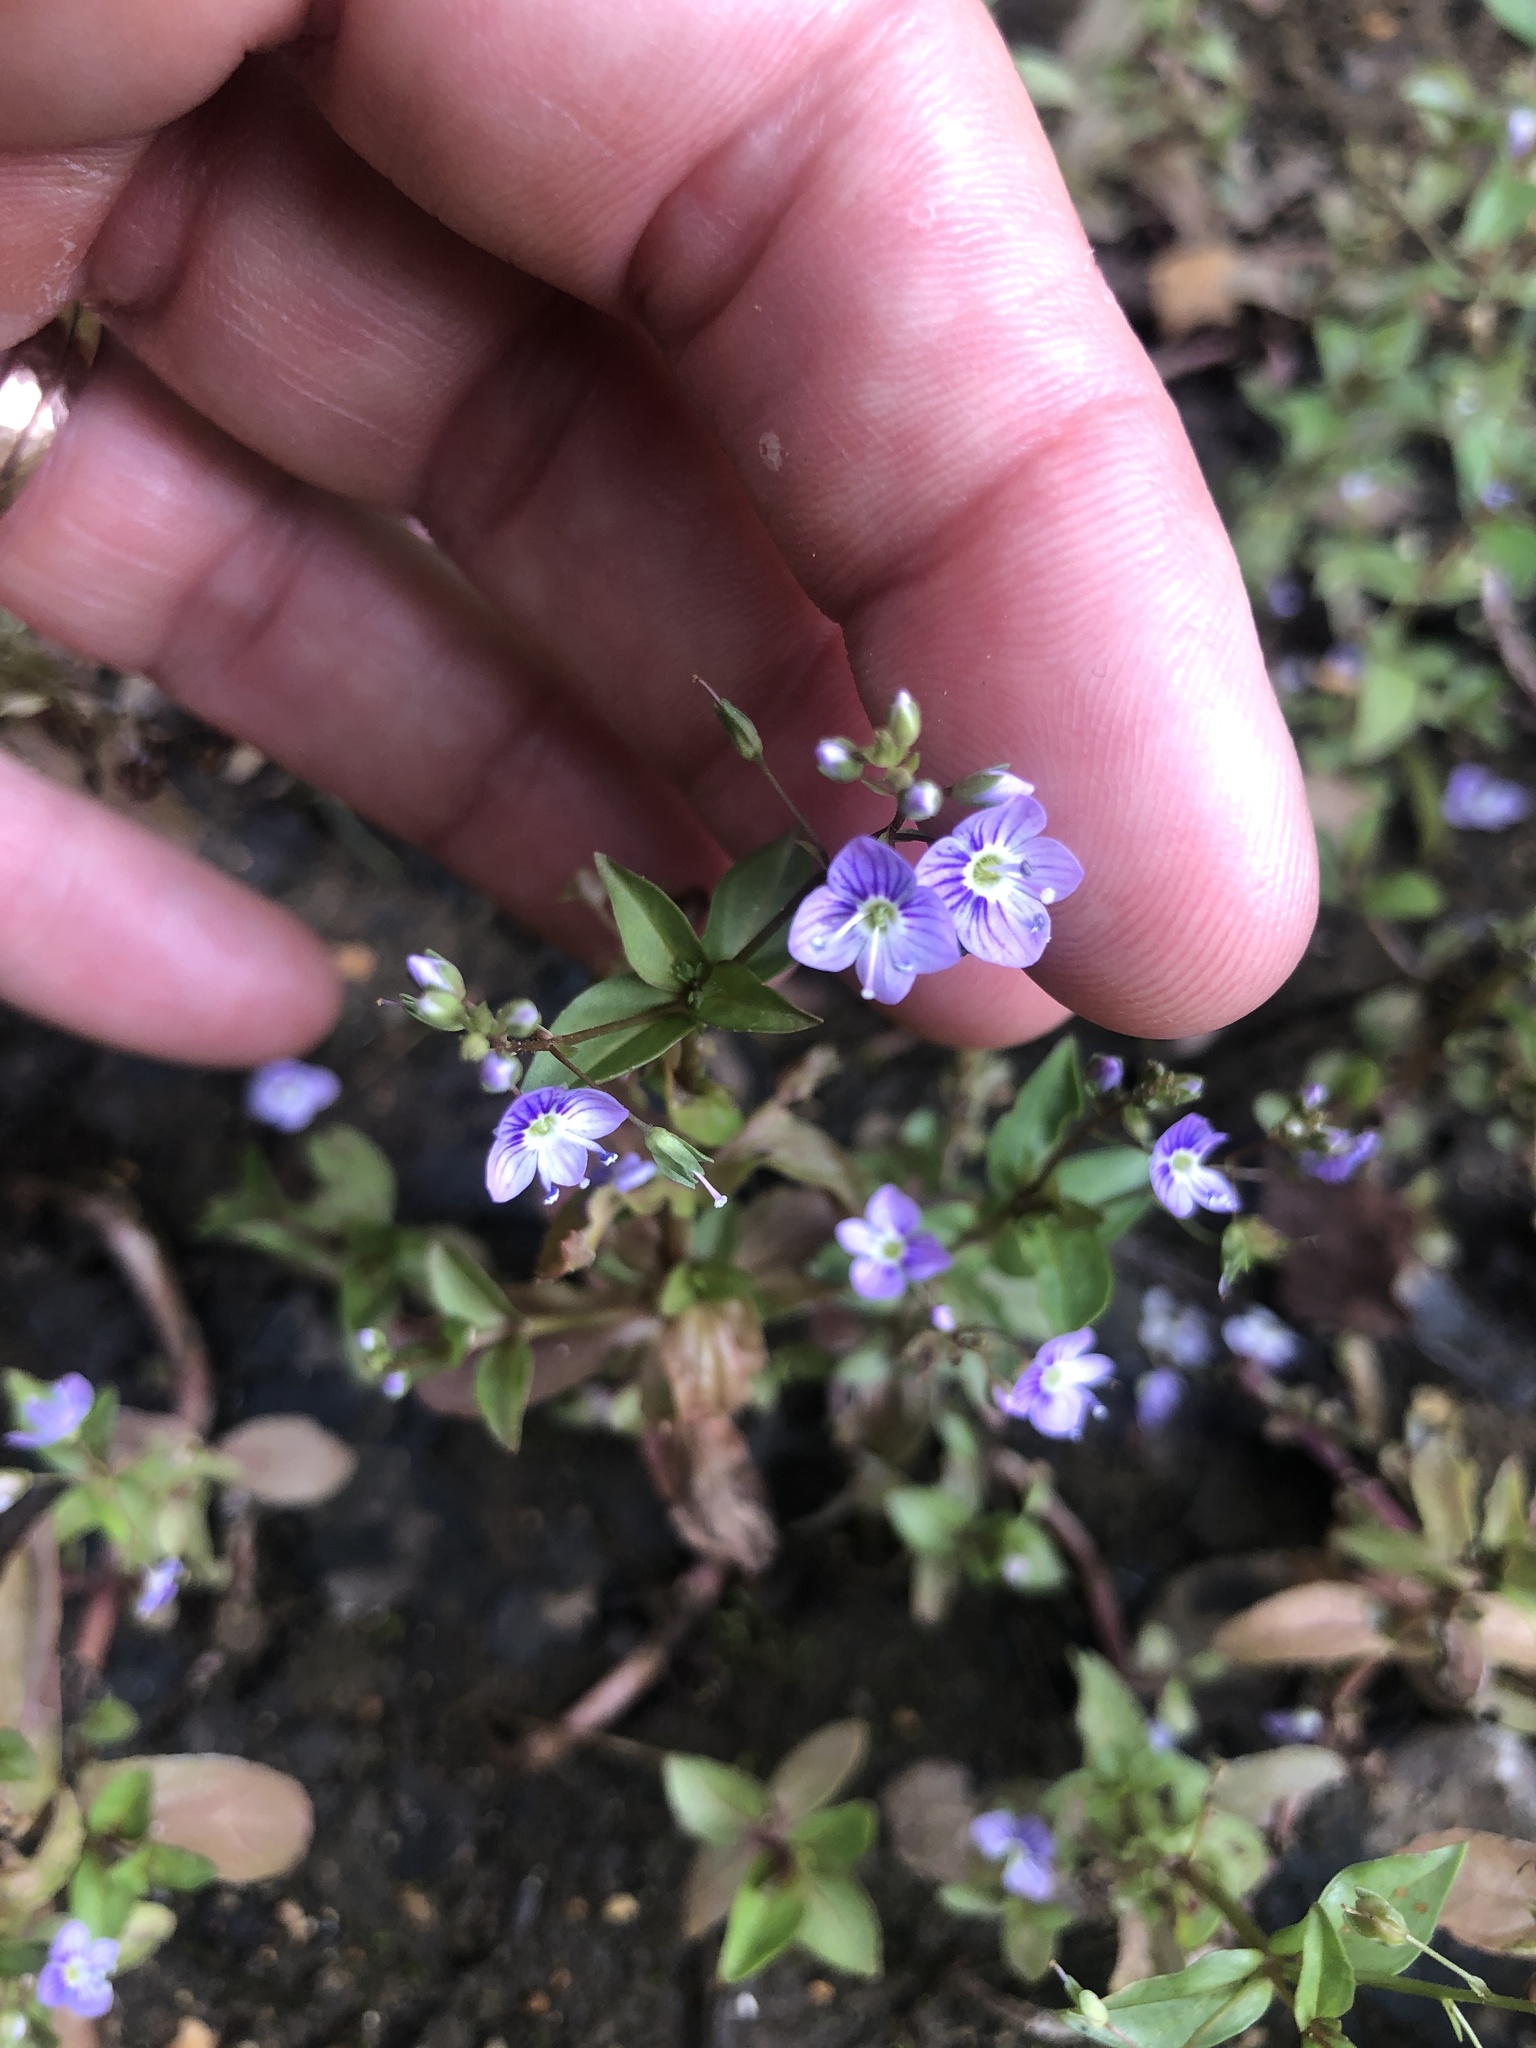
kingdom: Plantae
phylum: Tracheophyta
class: Magnoliopsida
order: Lamiales
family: Plantaginaceae
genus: Veronica
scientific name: Veronica anagallis-aquatica
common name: Water speedwell
